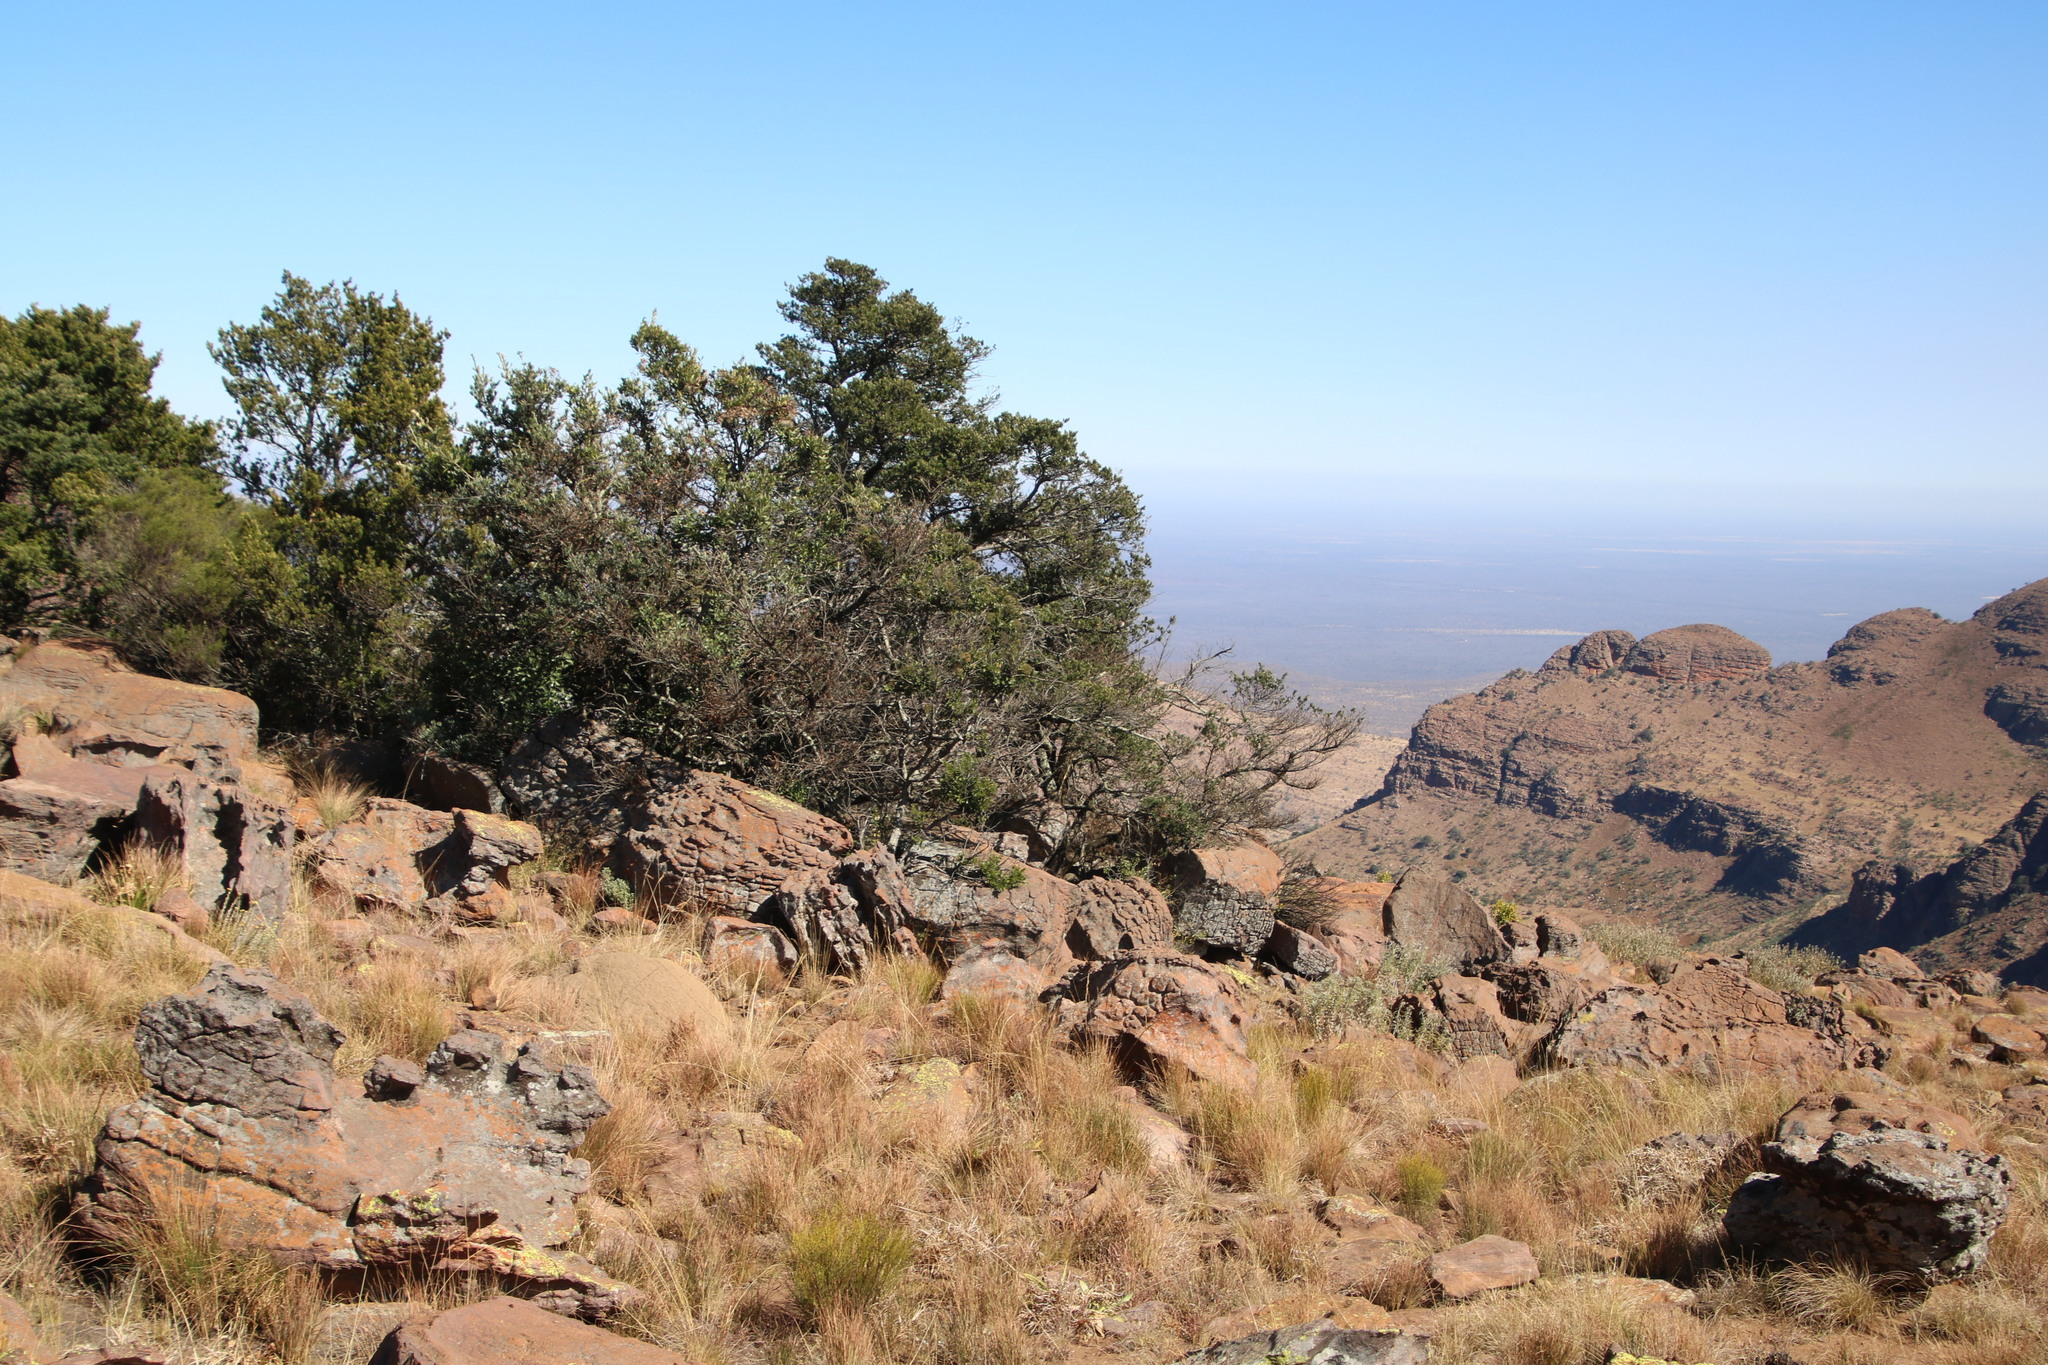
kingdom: Plantae
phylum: Tracheophyta
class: Pinopsida
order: Pinales
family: Podocarpaceae
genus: Podocarpus
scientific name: Podocarpus latifolius
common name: True yellowwood
